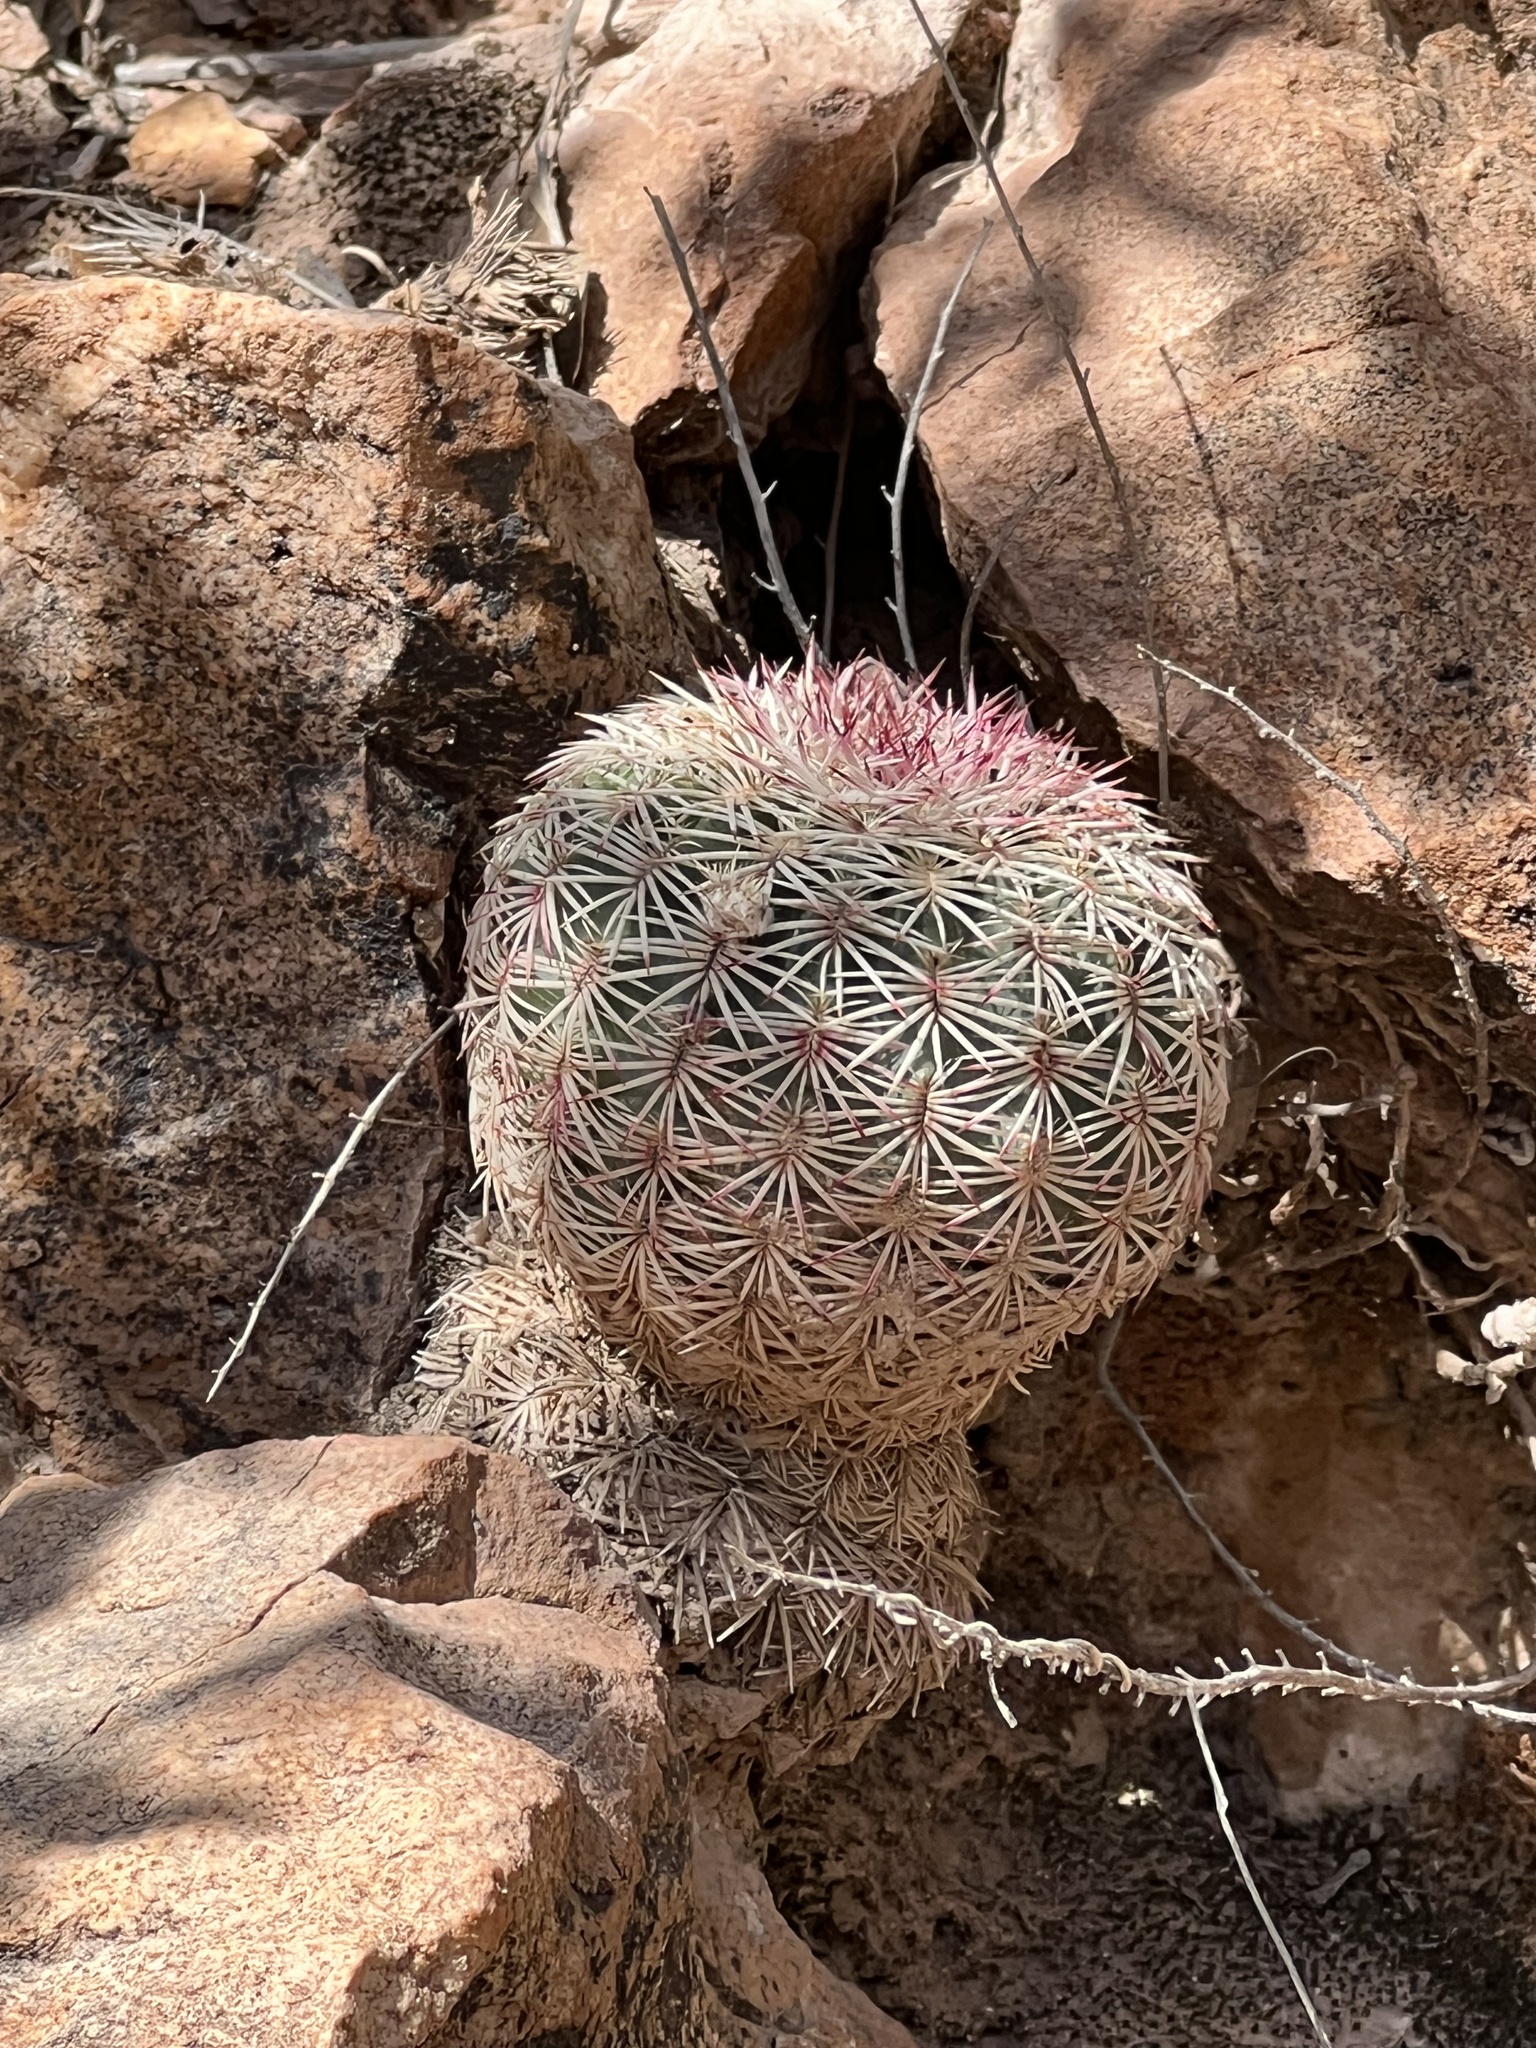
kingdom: Plantae
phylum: Tracheophyta
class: Magnoliopsida
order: Caryophyllales
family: Cactaceae
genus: Echinocereus
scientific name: Echinocereus rigidissimus
